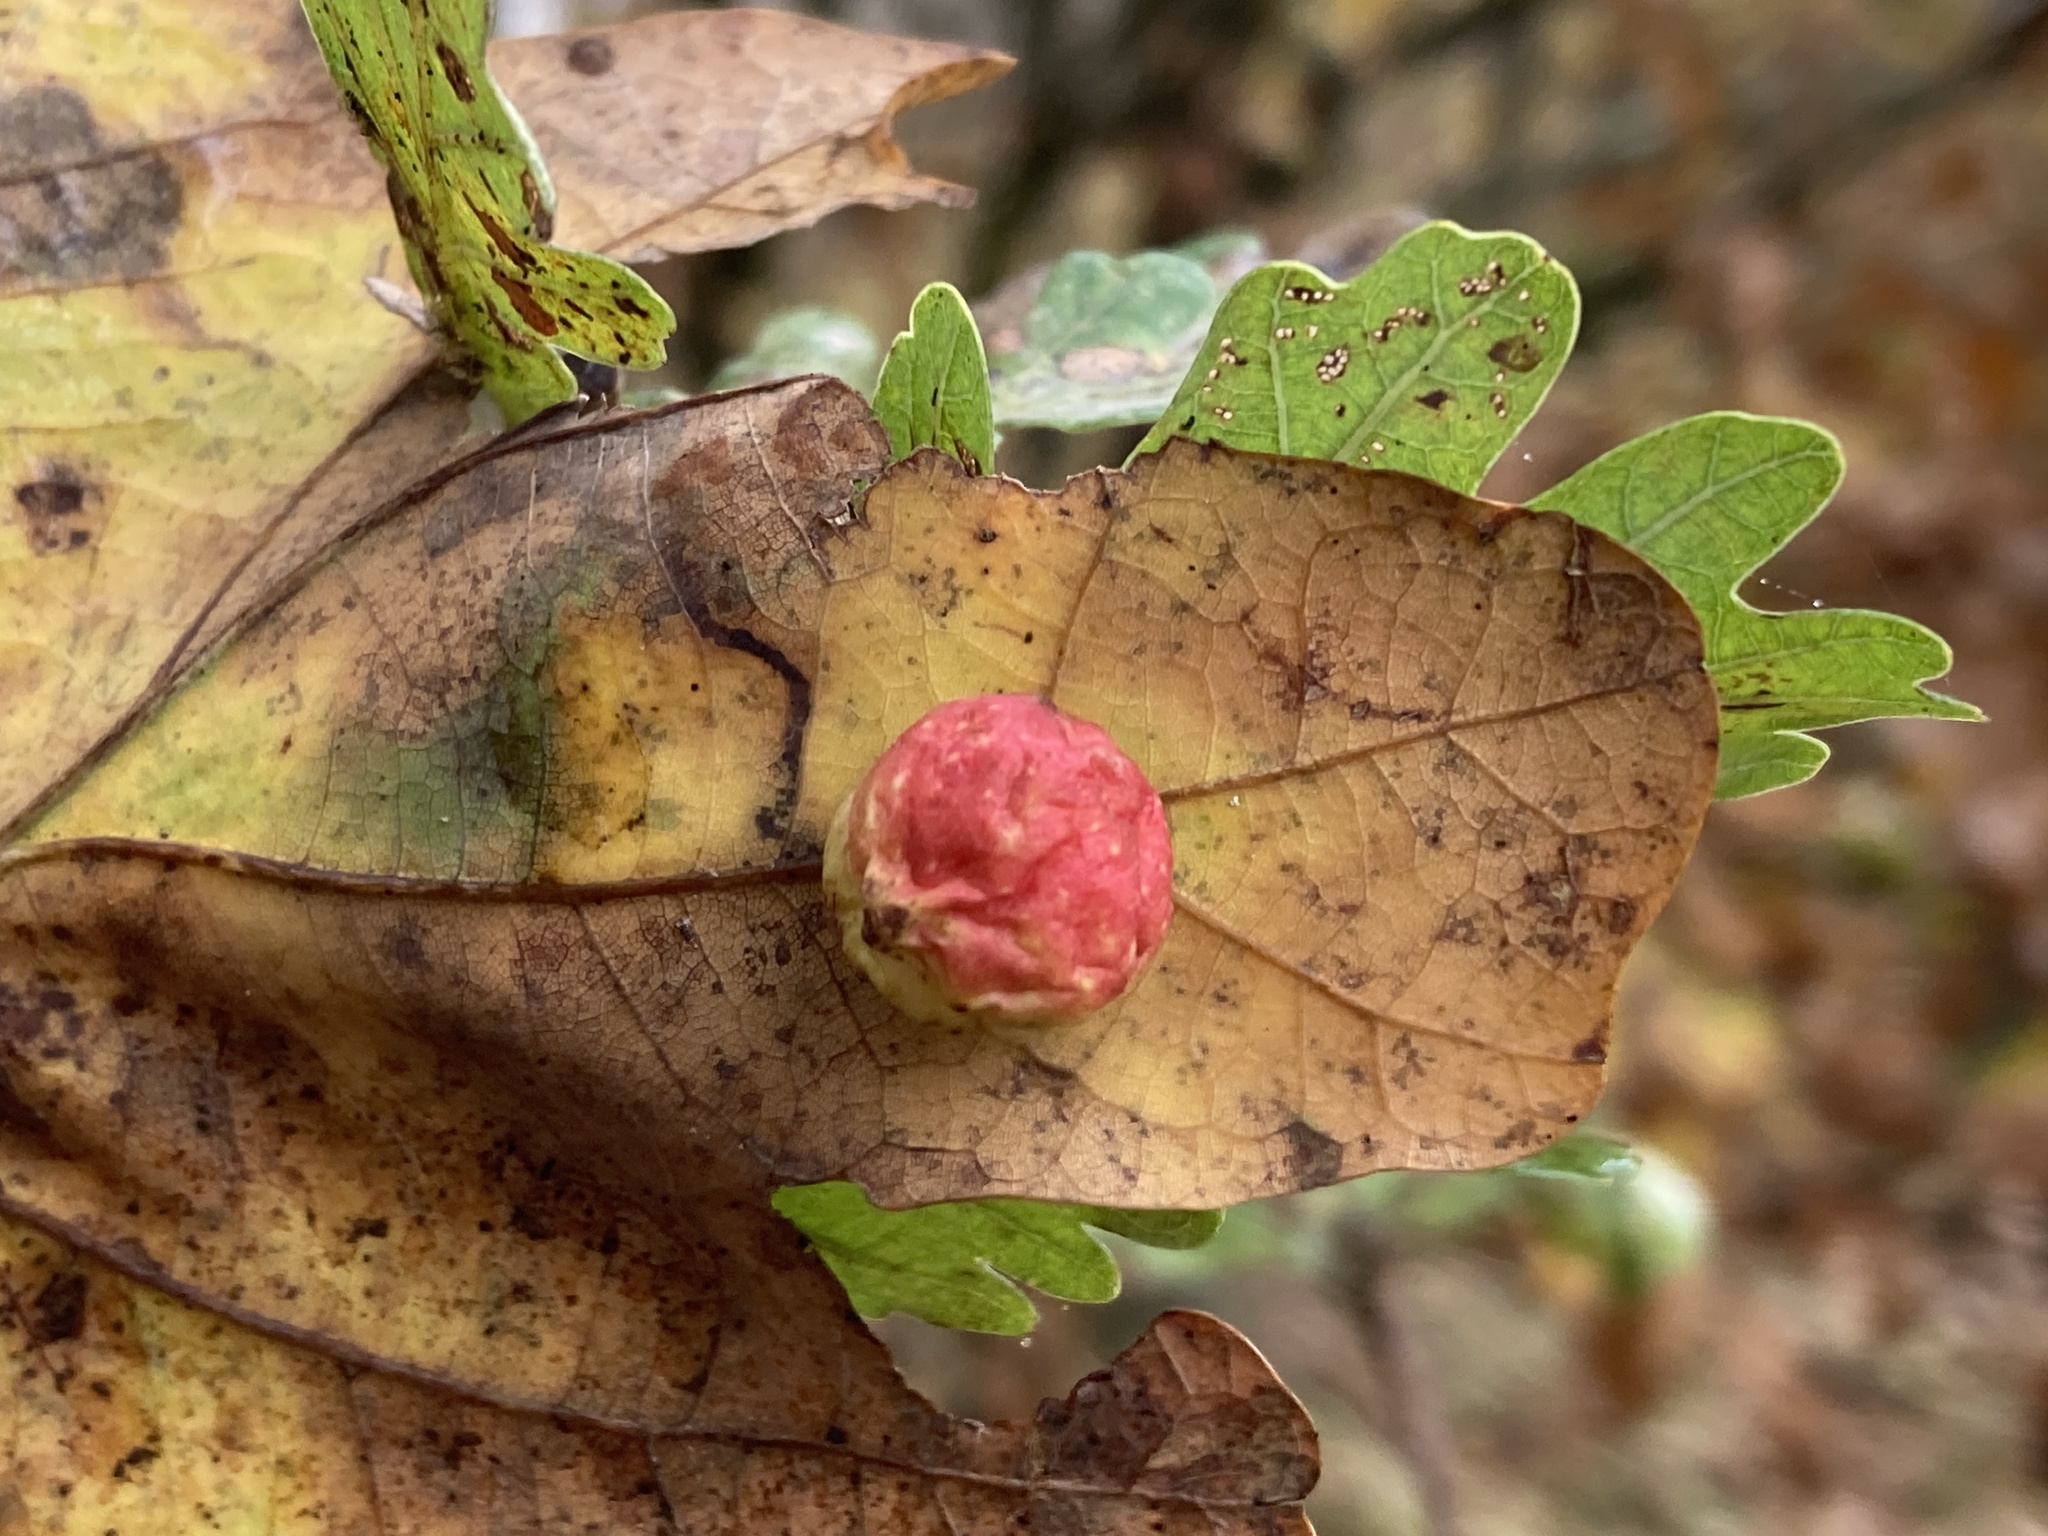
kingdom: Animalia
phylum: Arthropoda
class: Insecta
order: Hymenoptera
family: Cynipidae
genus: Cynips
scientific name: Cynips quercusfolii
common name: Cherry gall
